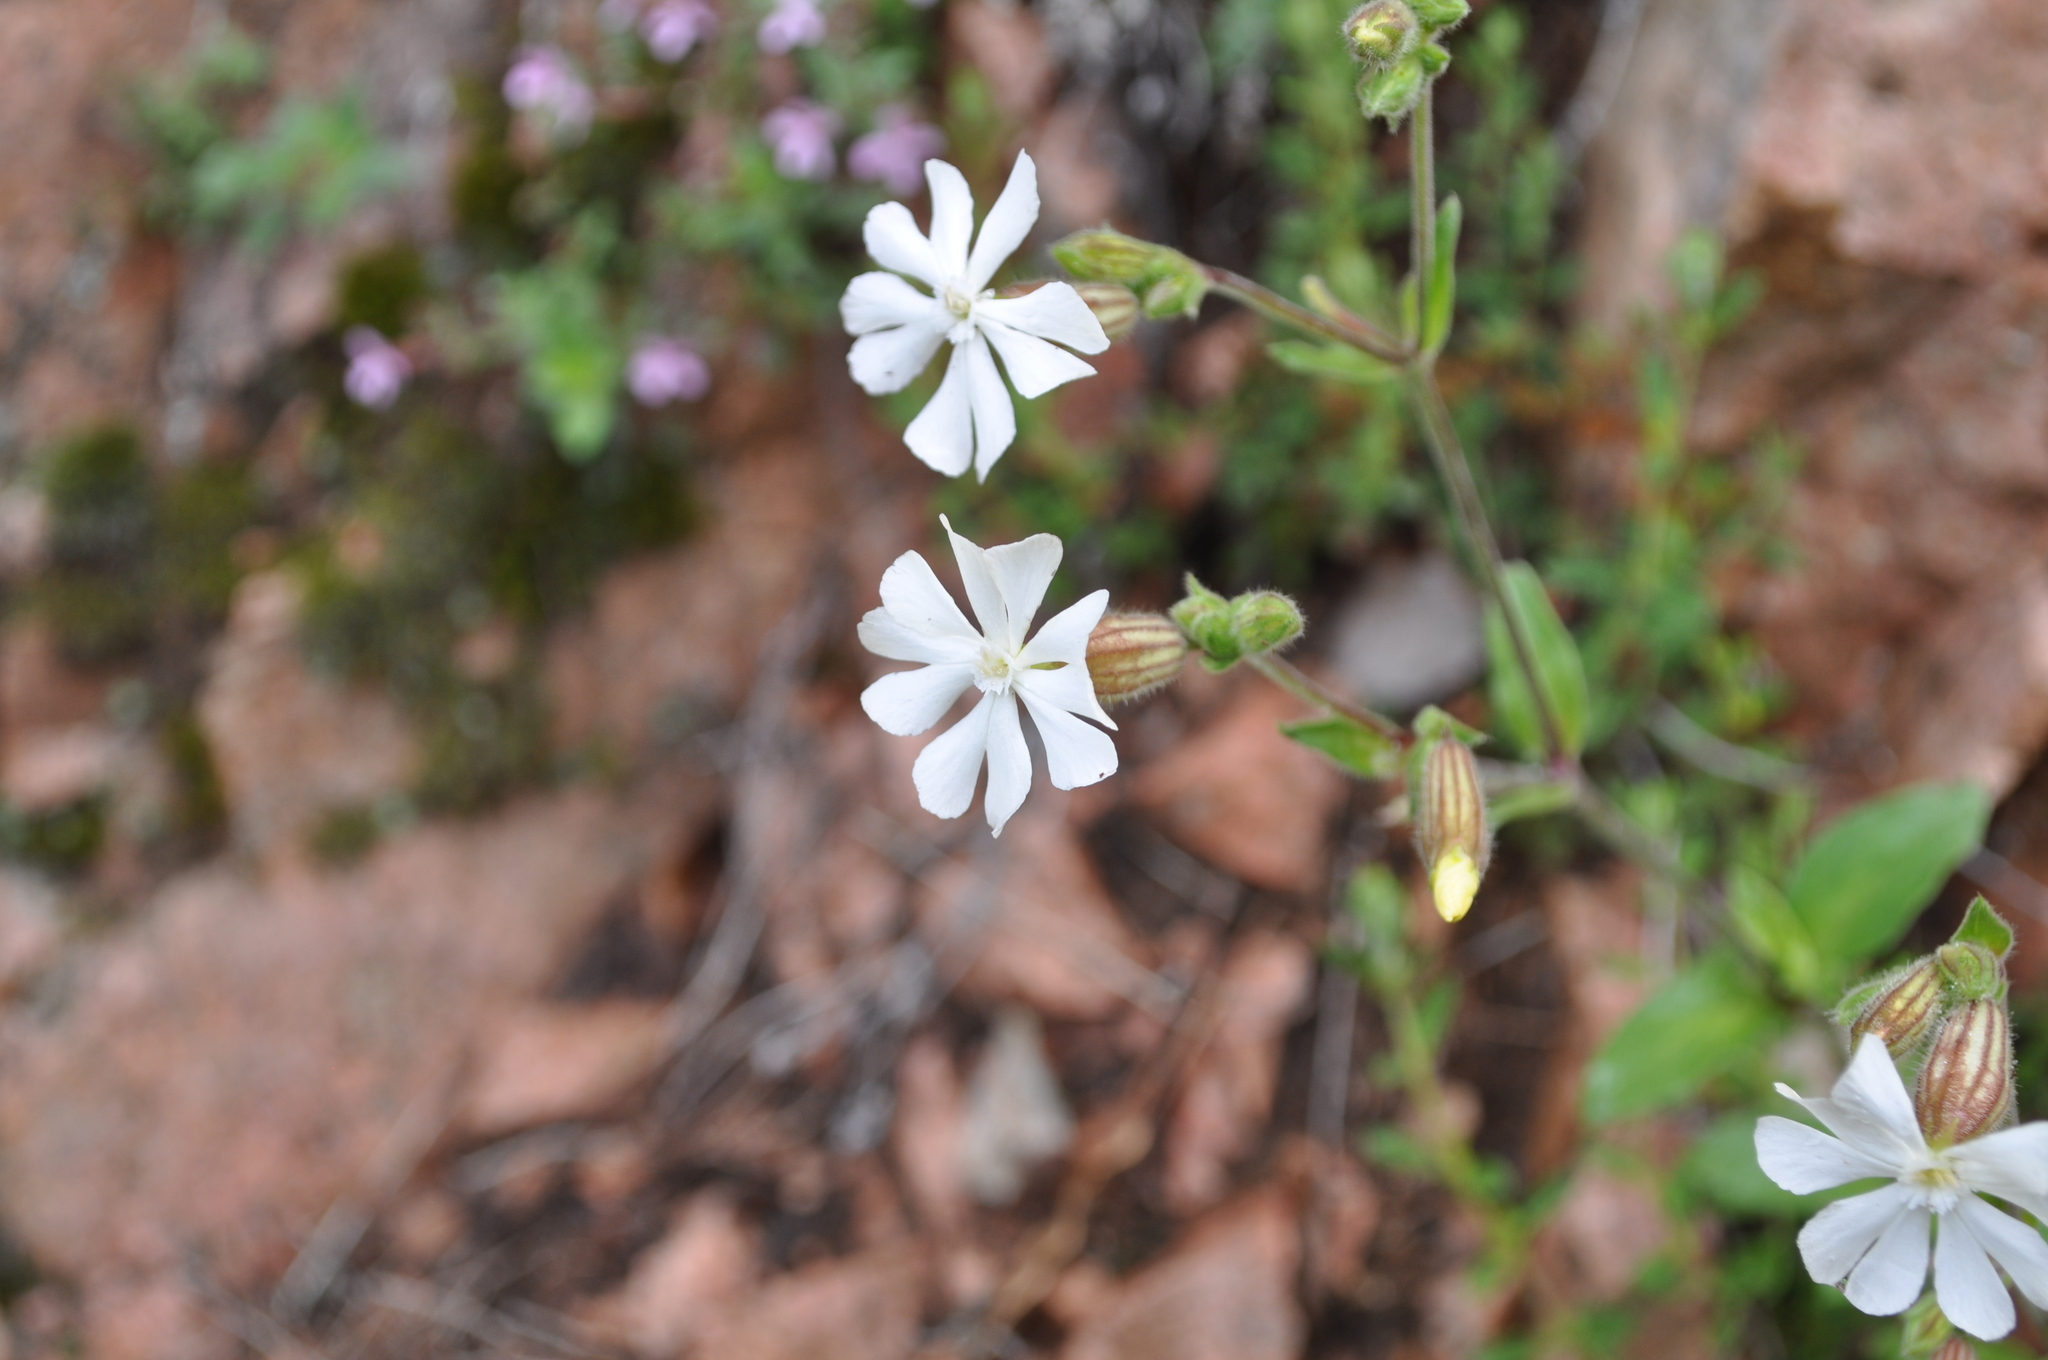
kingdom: Plantae
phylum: Tracheophyta
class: Magnoliopsida
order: Caryophyllales
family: Caryophyllaceae
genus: Silene
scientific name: Silene latifolia
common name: White campion
